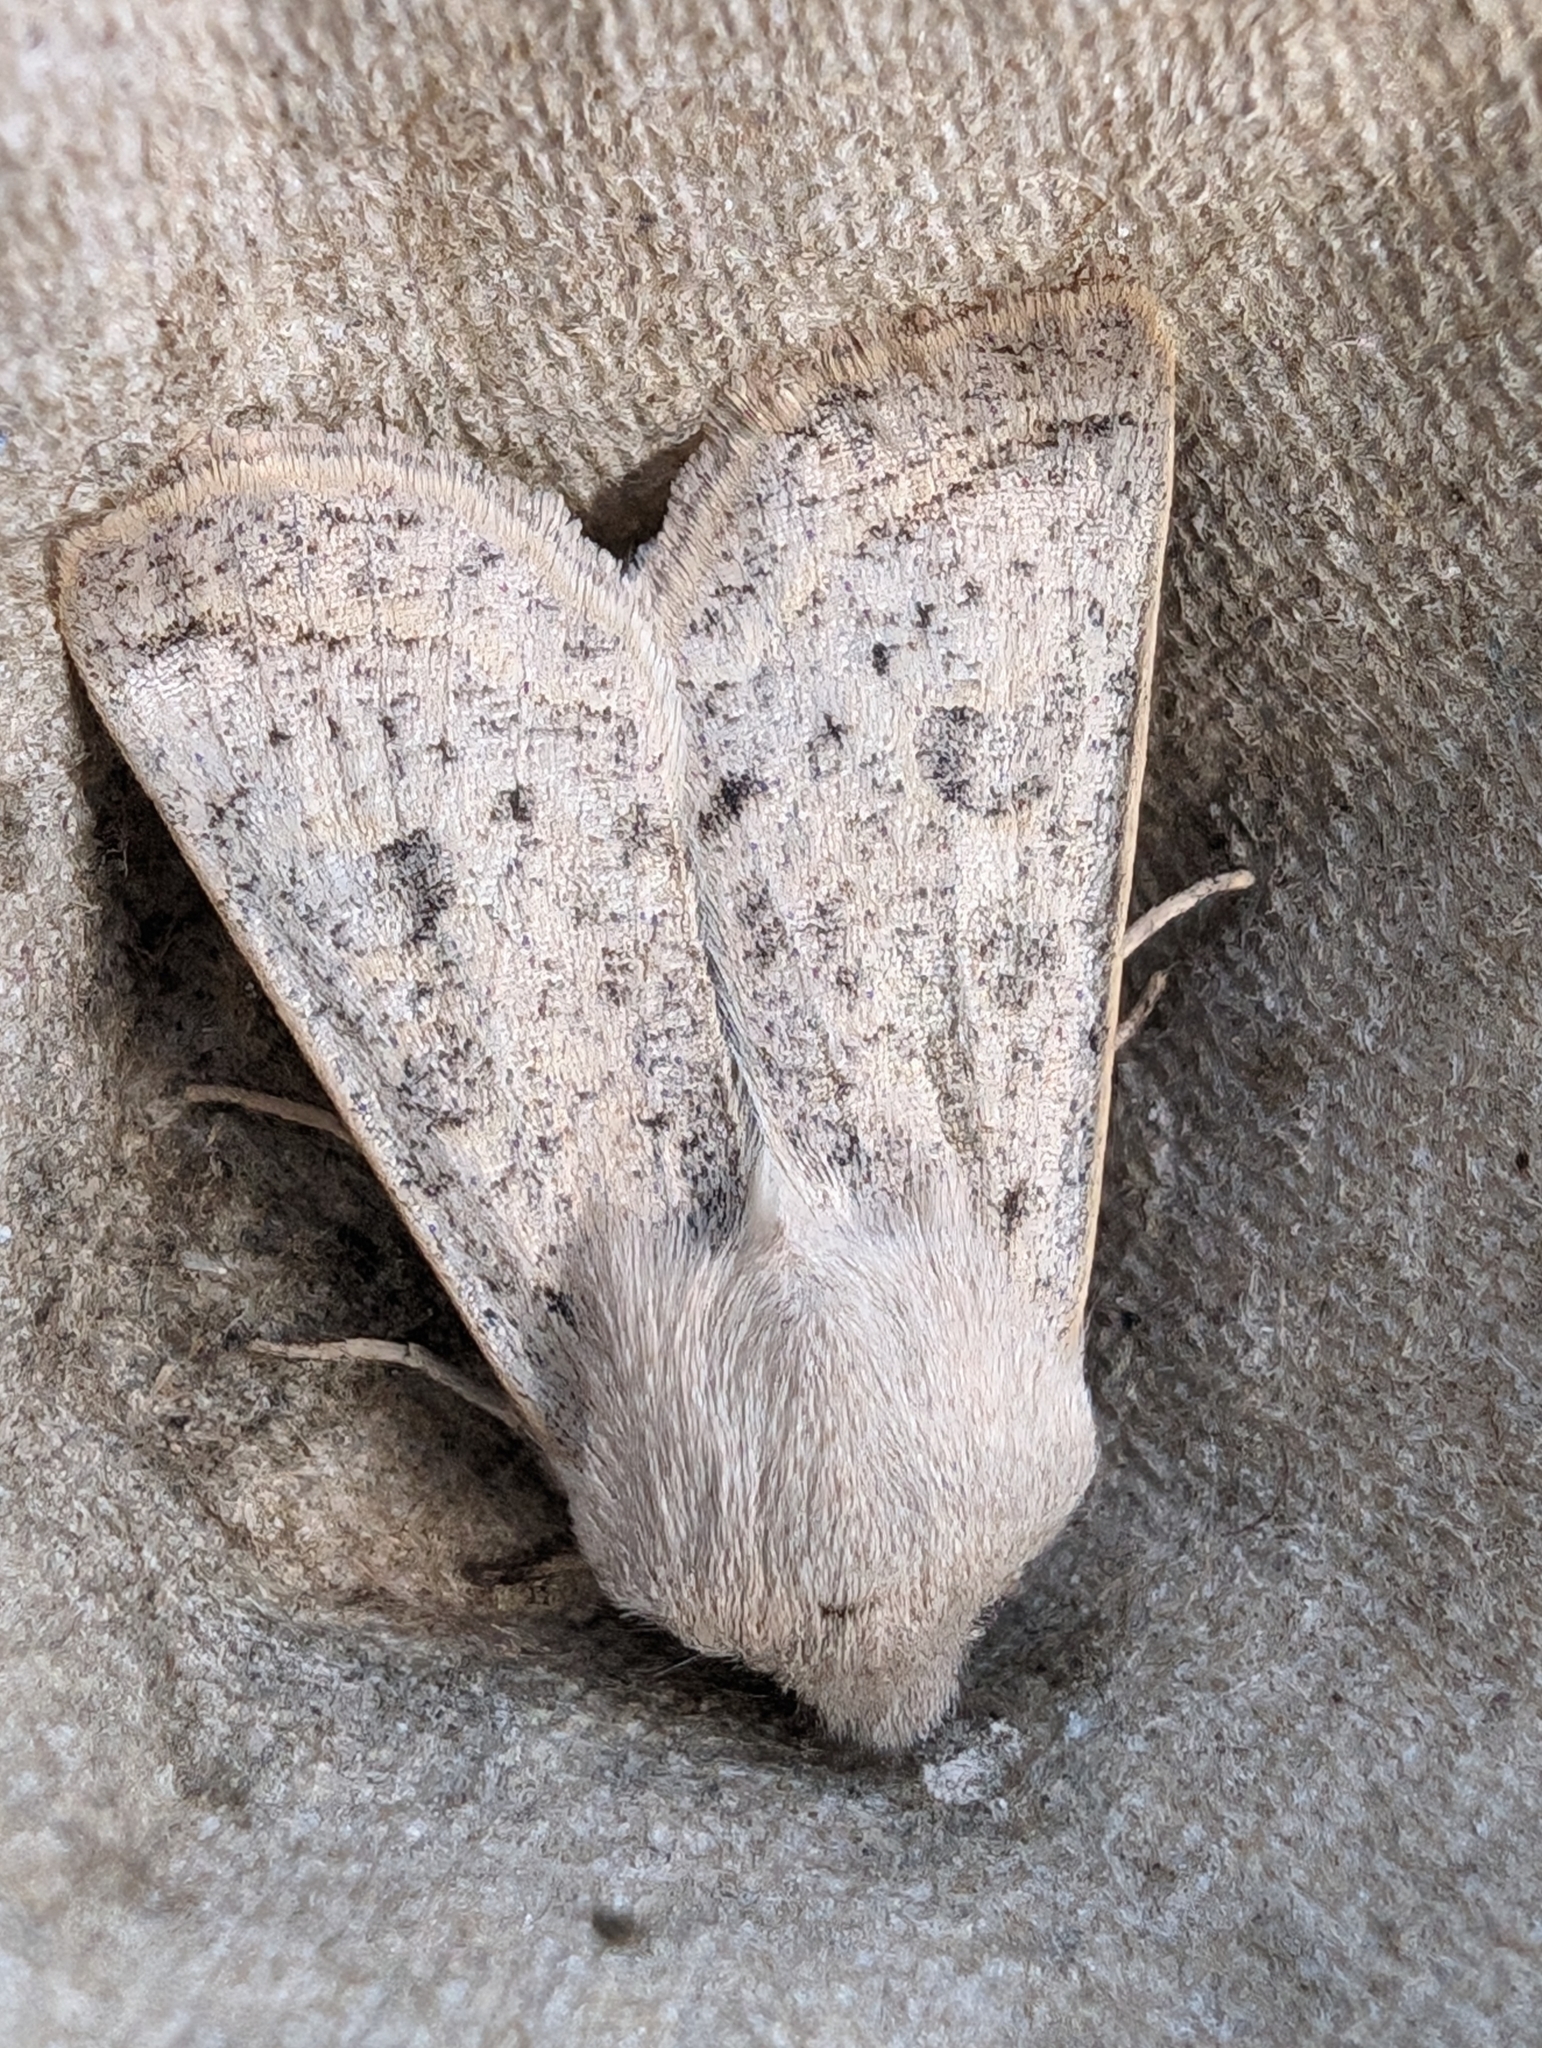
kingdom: Animalia
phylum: Arthropoda
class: Insecta
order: Lepidoptera
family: Noctuidae
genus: Orthosia
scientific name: Orthosia gracilis
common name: Powdered quaker
